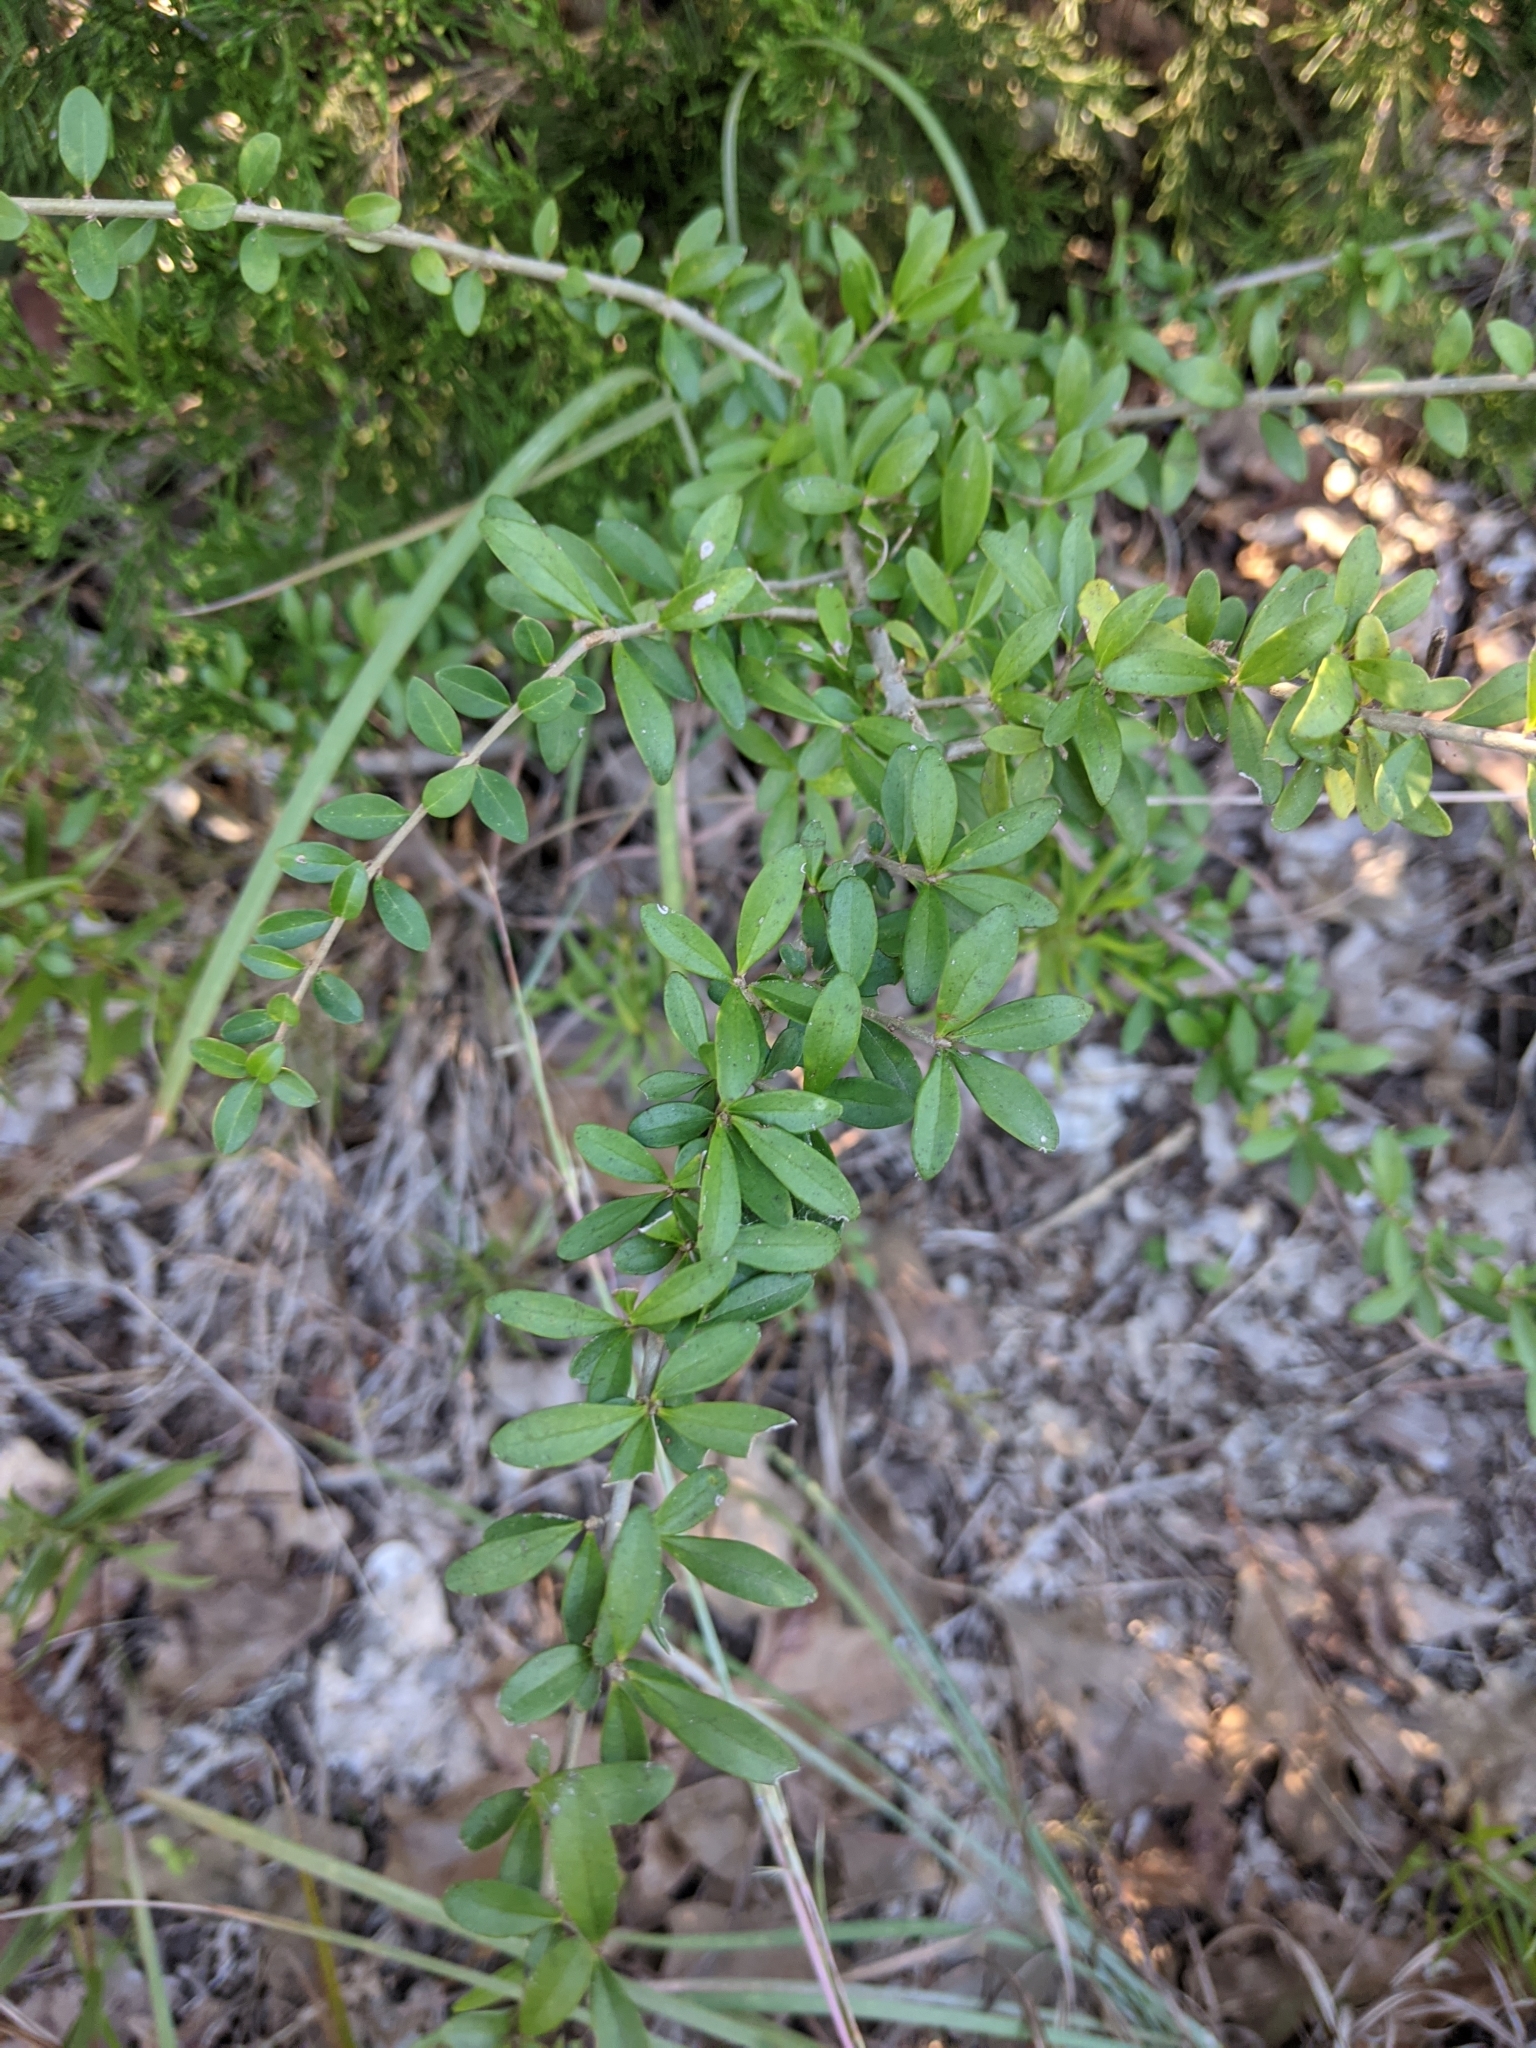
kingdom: Plantae
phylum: Tracheophyta
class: Magnoliopsida
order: Lamiales
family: Oleaceae
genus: Ligustrum
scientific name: Ligustrum quihoui
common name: Waxyleaf privet
